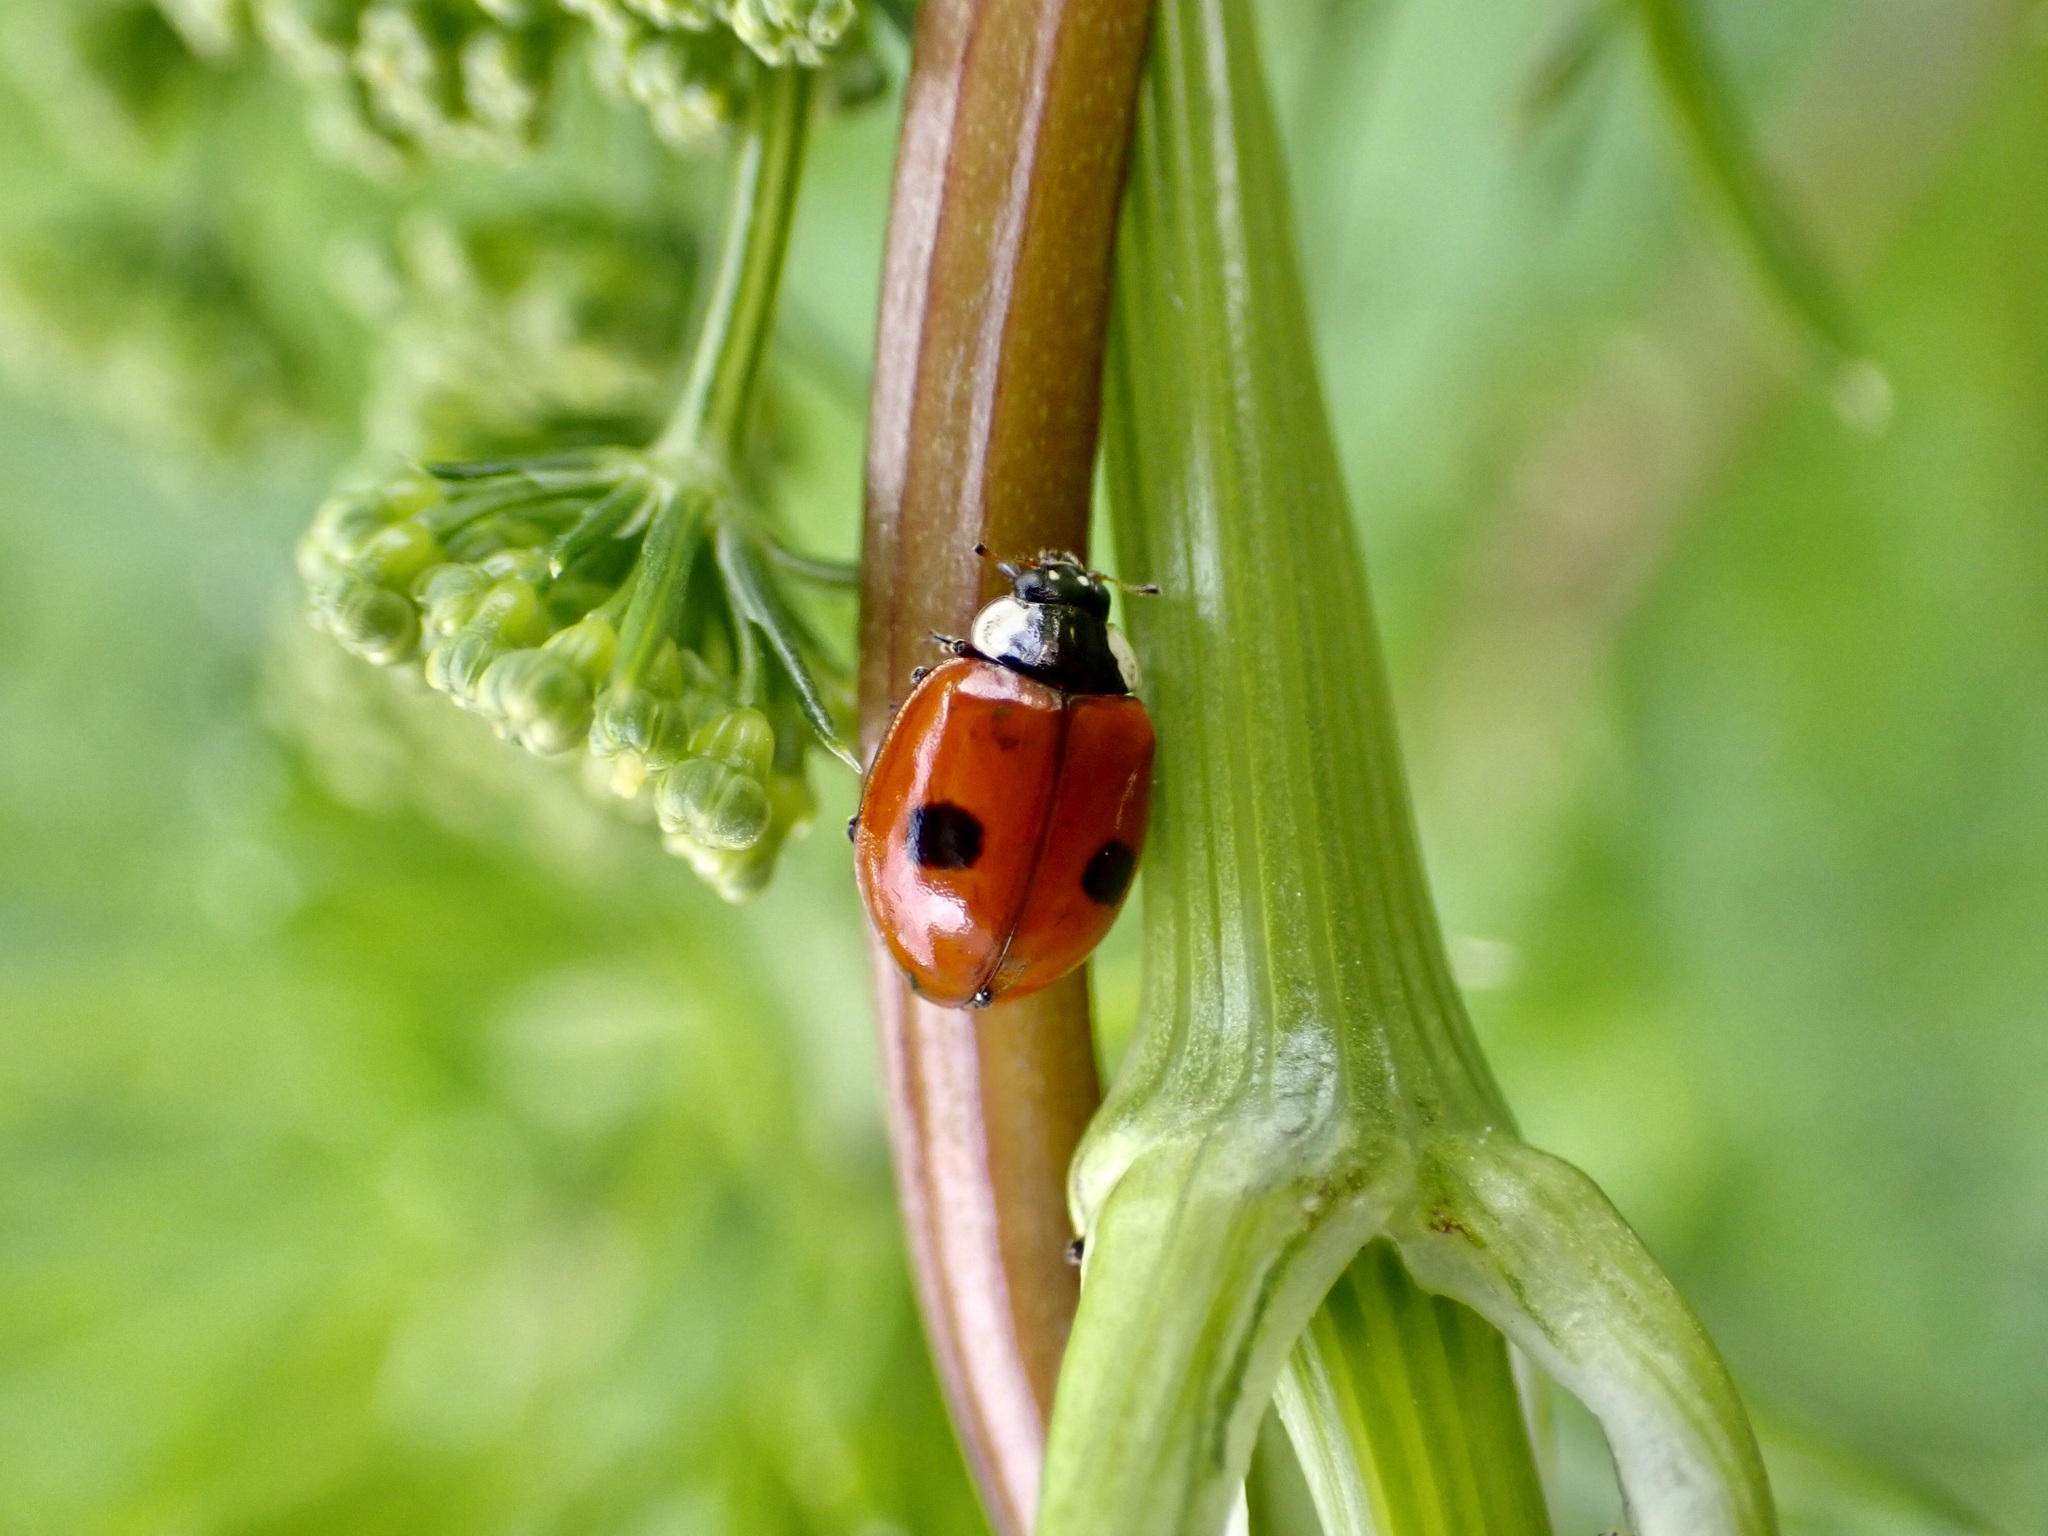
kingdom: Animalia
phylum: Arthropoda
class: Insecta
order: Coleoptera
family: Coccinellidae
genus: Adalia
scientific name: Adalia bipunctata
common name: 2-spot ladybird
